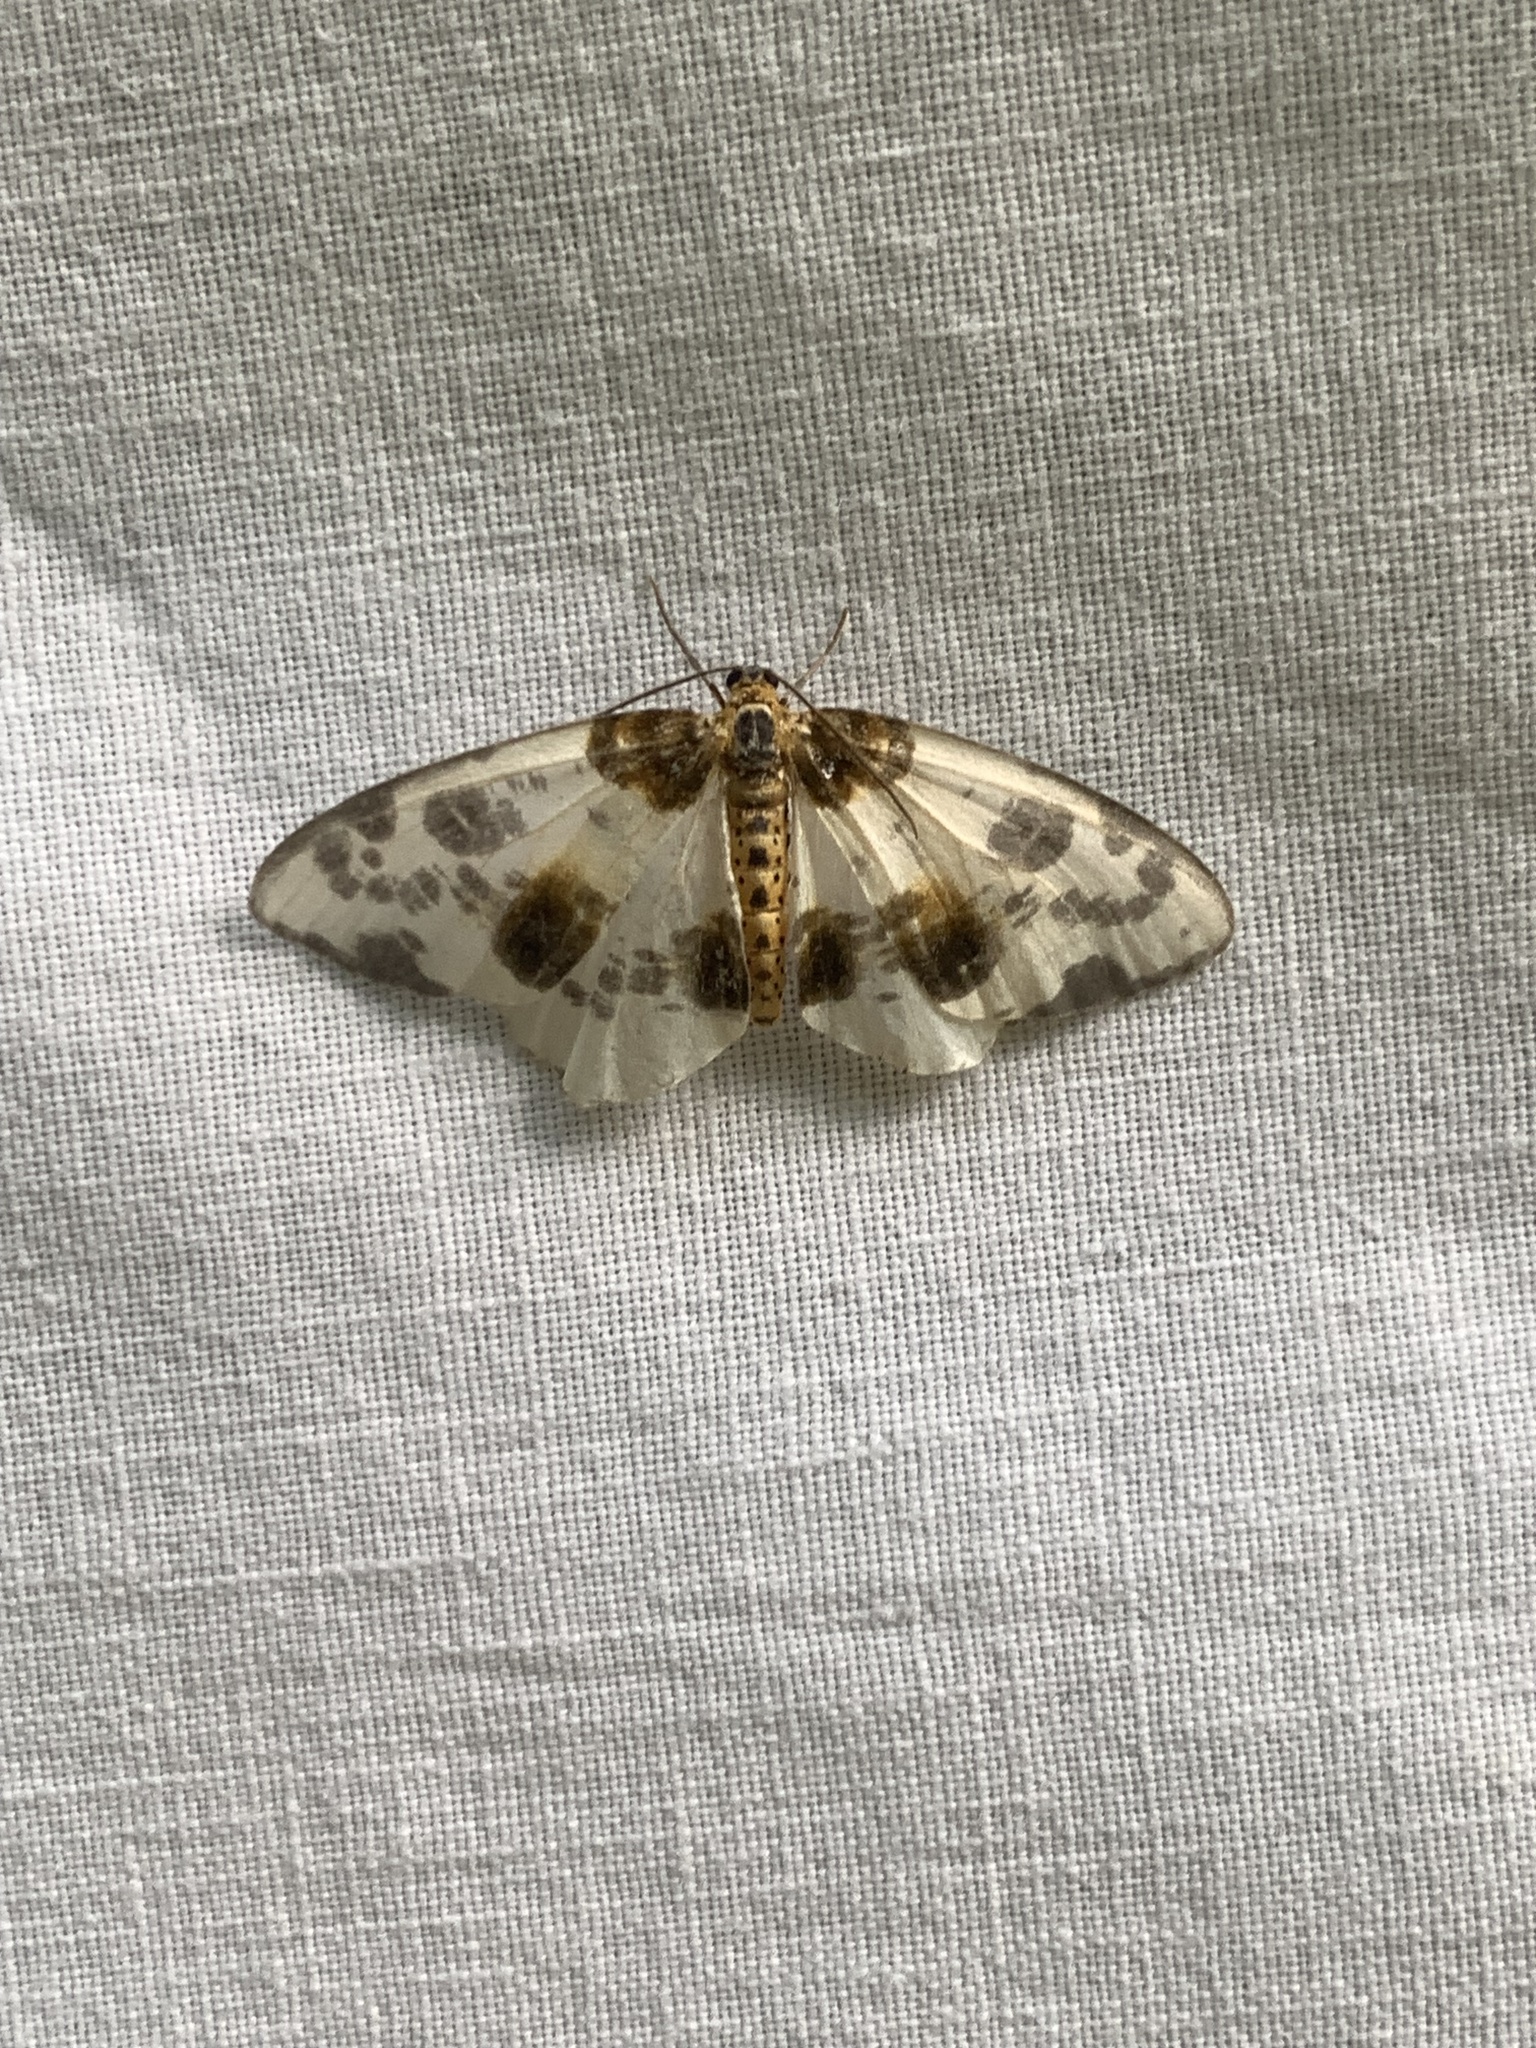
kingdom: Animalia
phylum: Arthropoda
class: Insecta
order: Lepidoptera
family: Geometridae
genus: Abraxas
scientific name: Abraxas sylvata
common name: Clouded magpie
